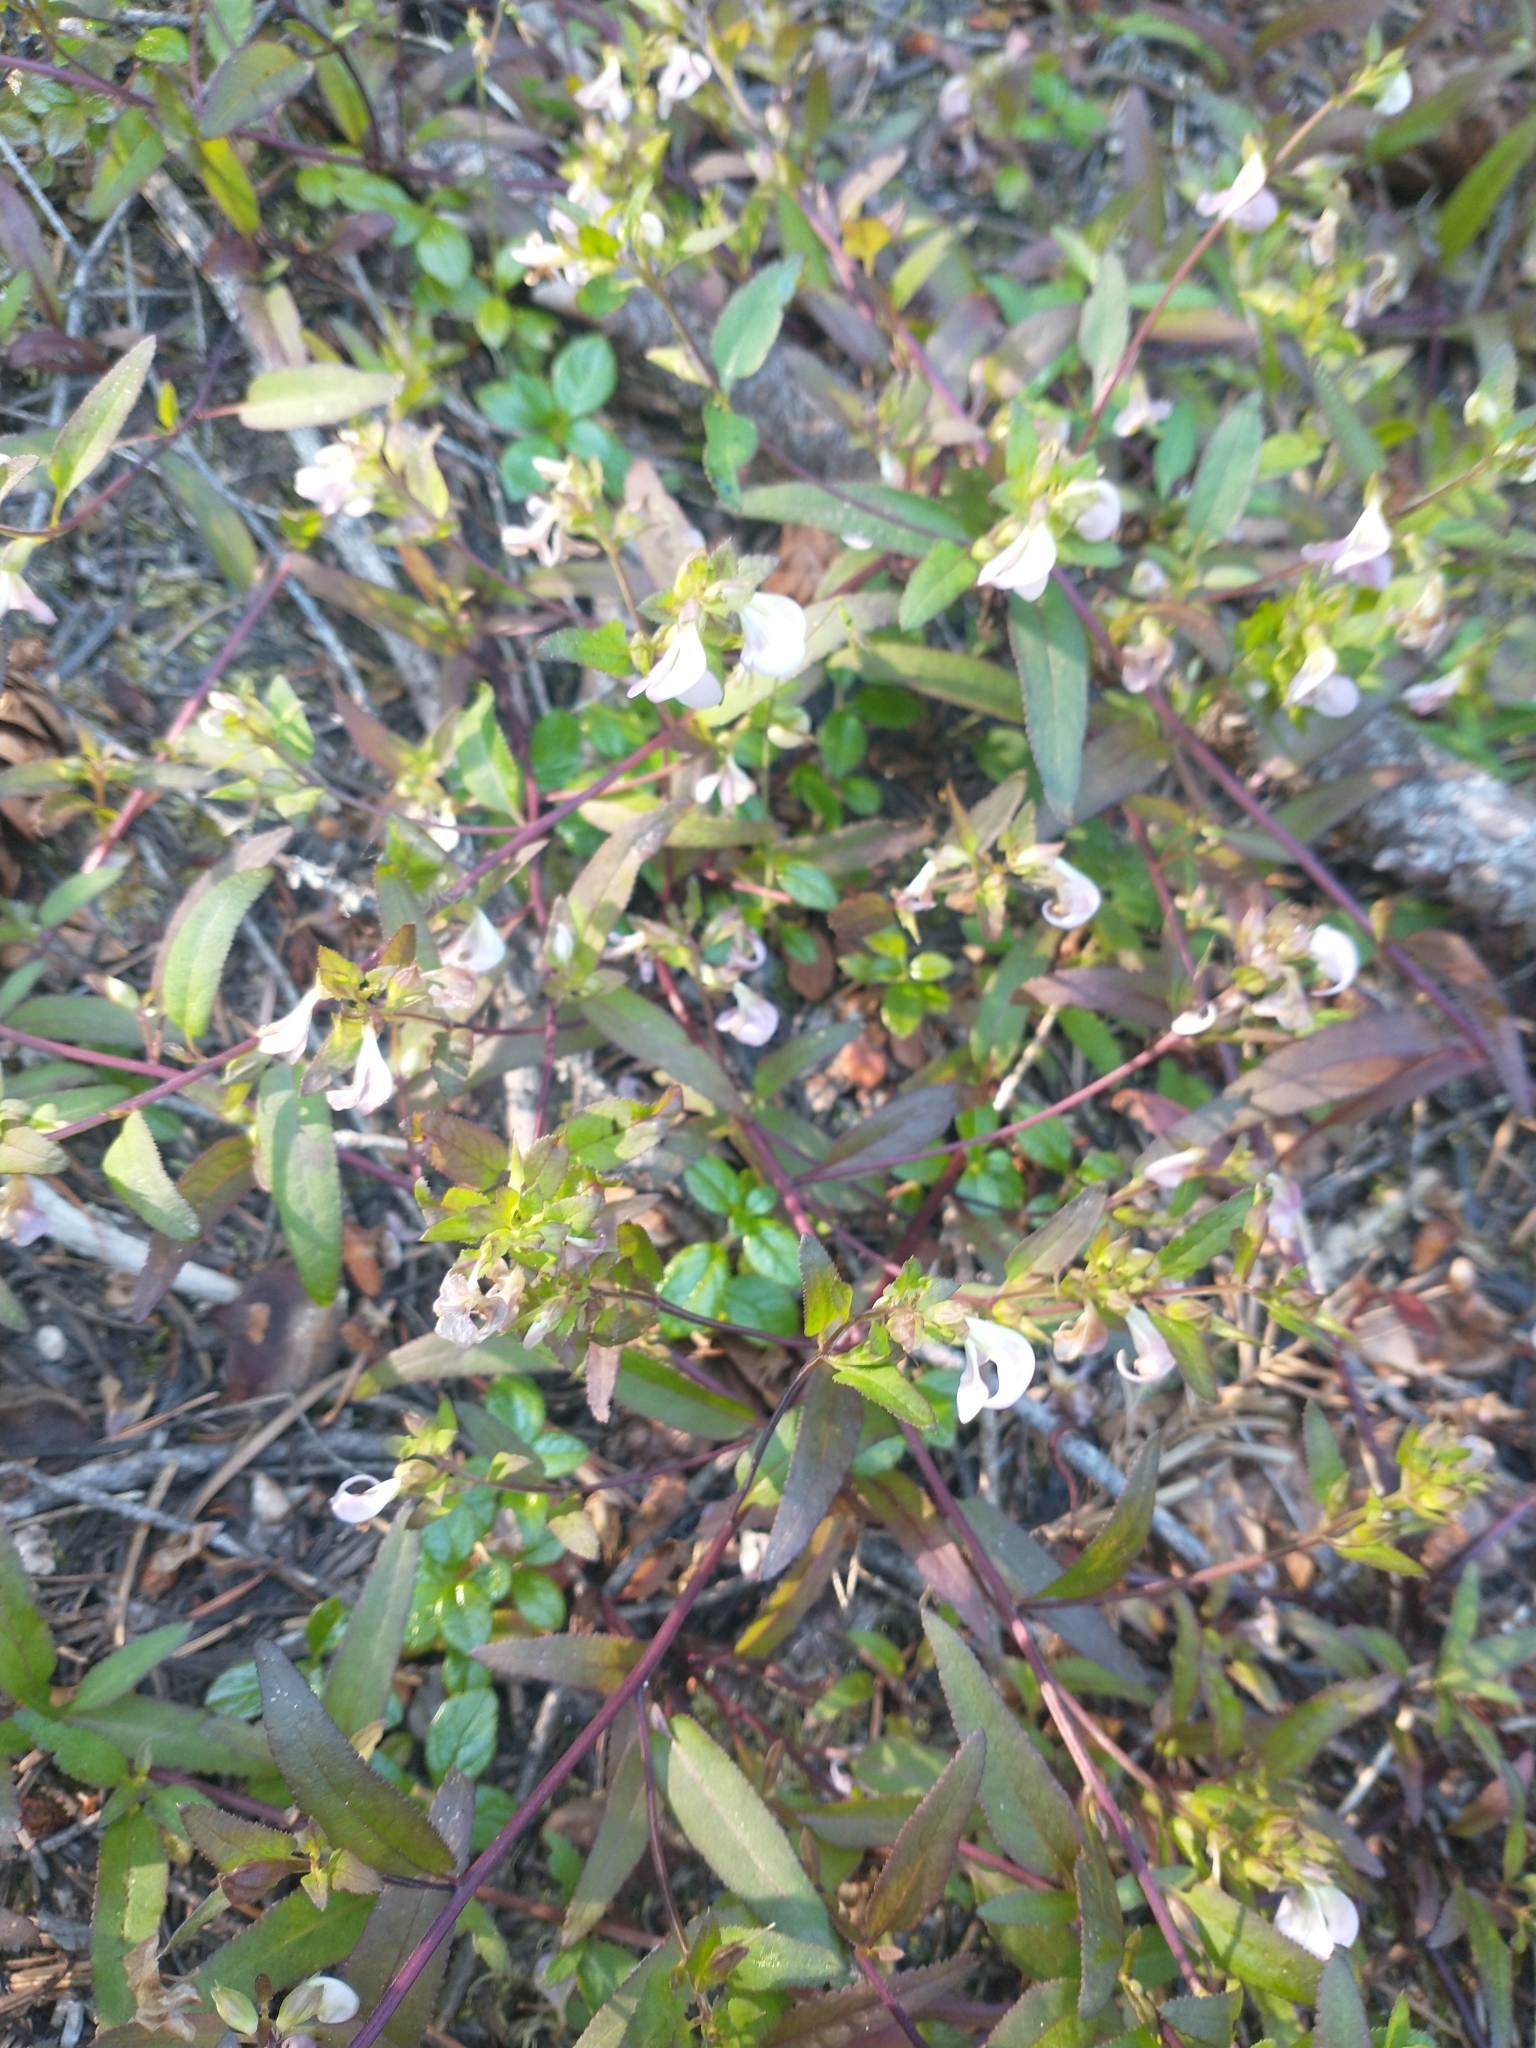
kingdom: Plantae
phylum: Tracheophyta
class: Magnoliopsida
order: Lamiales
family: Orobanchaceae
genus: Pedicularis
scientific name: Pedicularis racemosa
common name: Leafy lousewort
